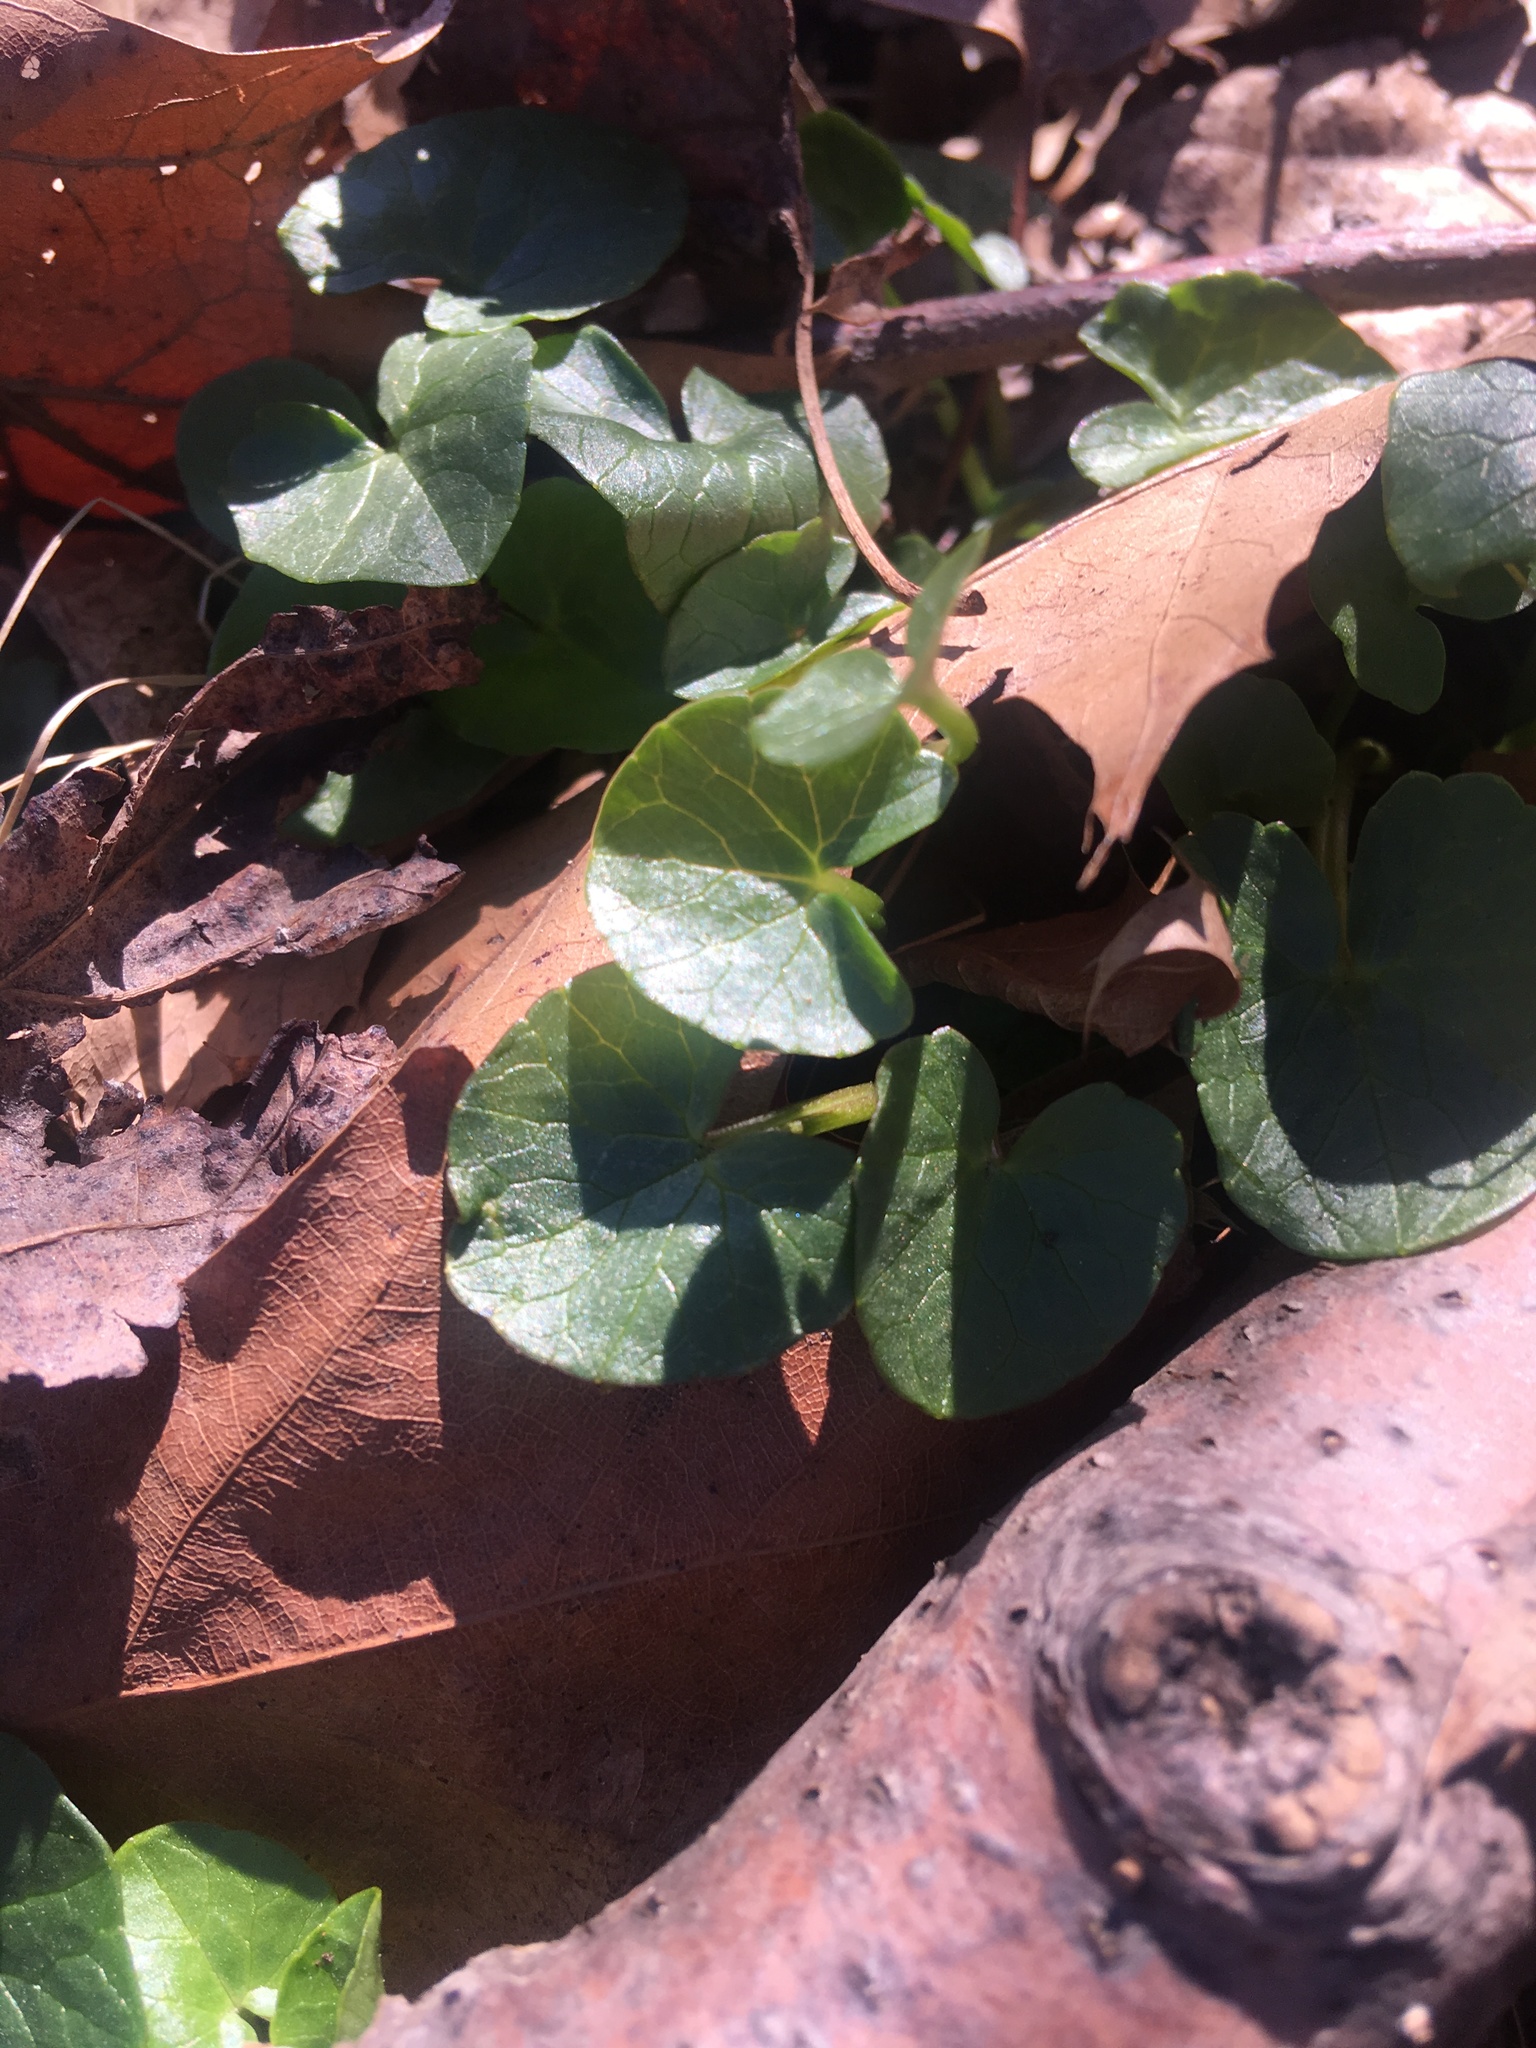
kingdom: Plantae
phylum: Tracheophyta
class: Magnoliopsida
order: Ranunculales
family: Ranunculaceae
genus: Ficaria
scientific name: Ficaria verna
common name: Lesser celandine
